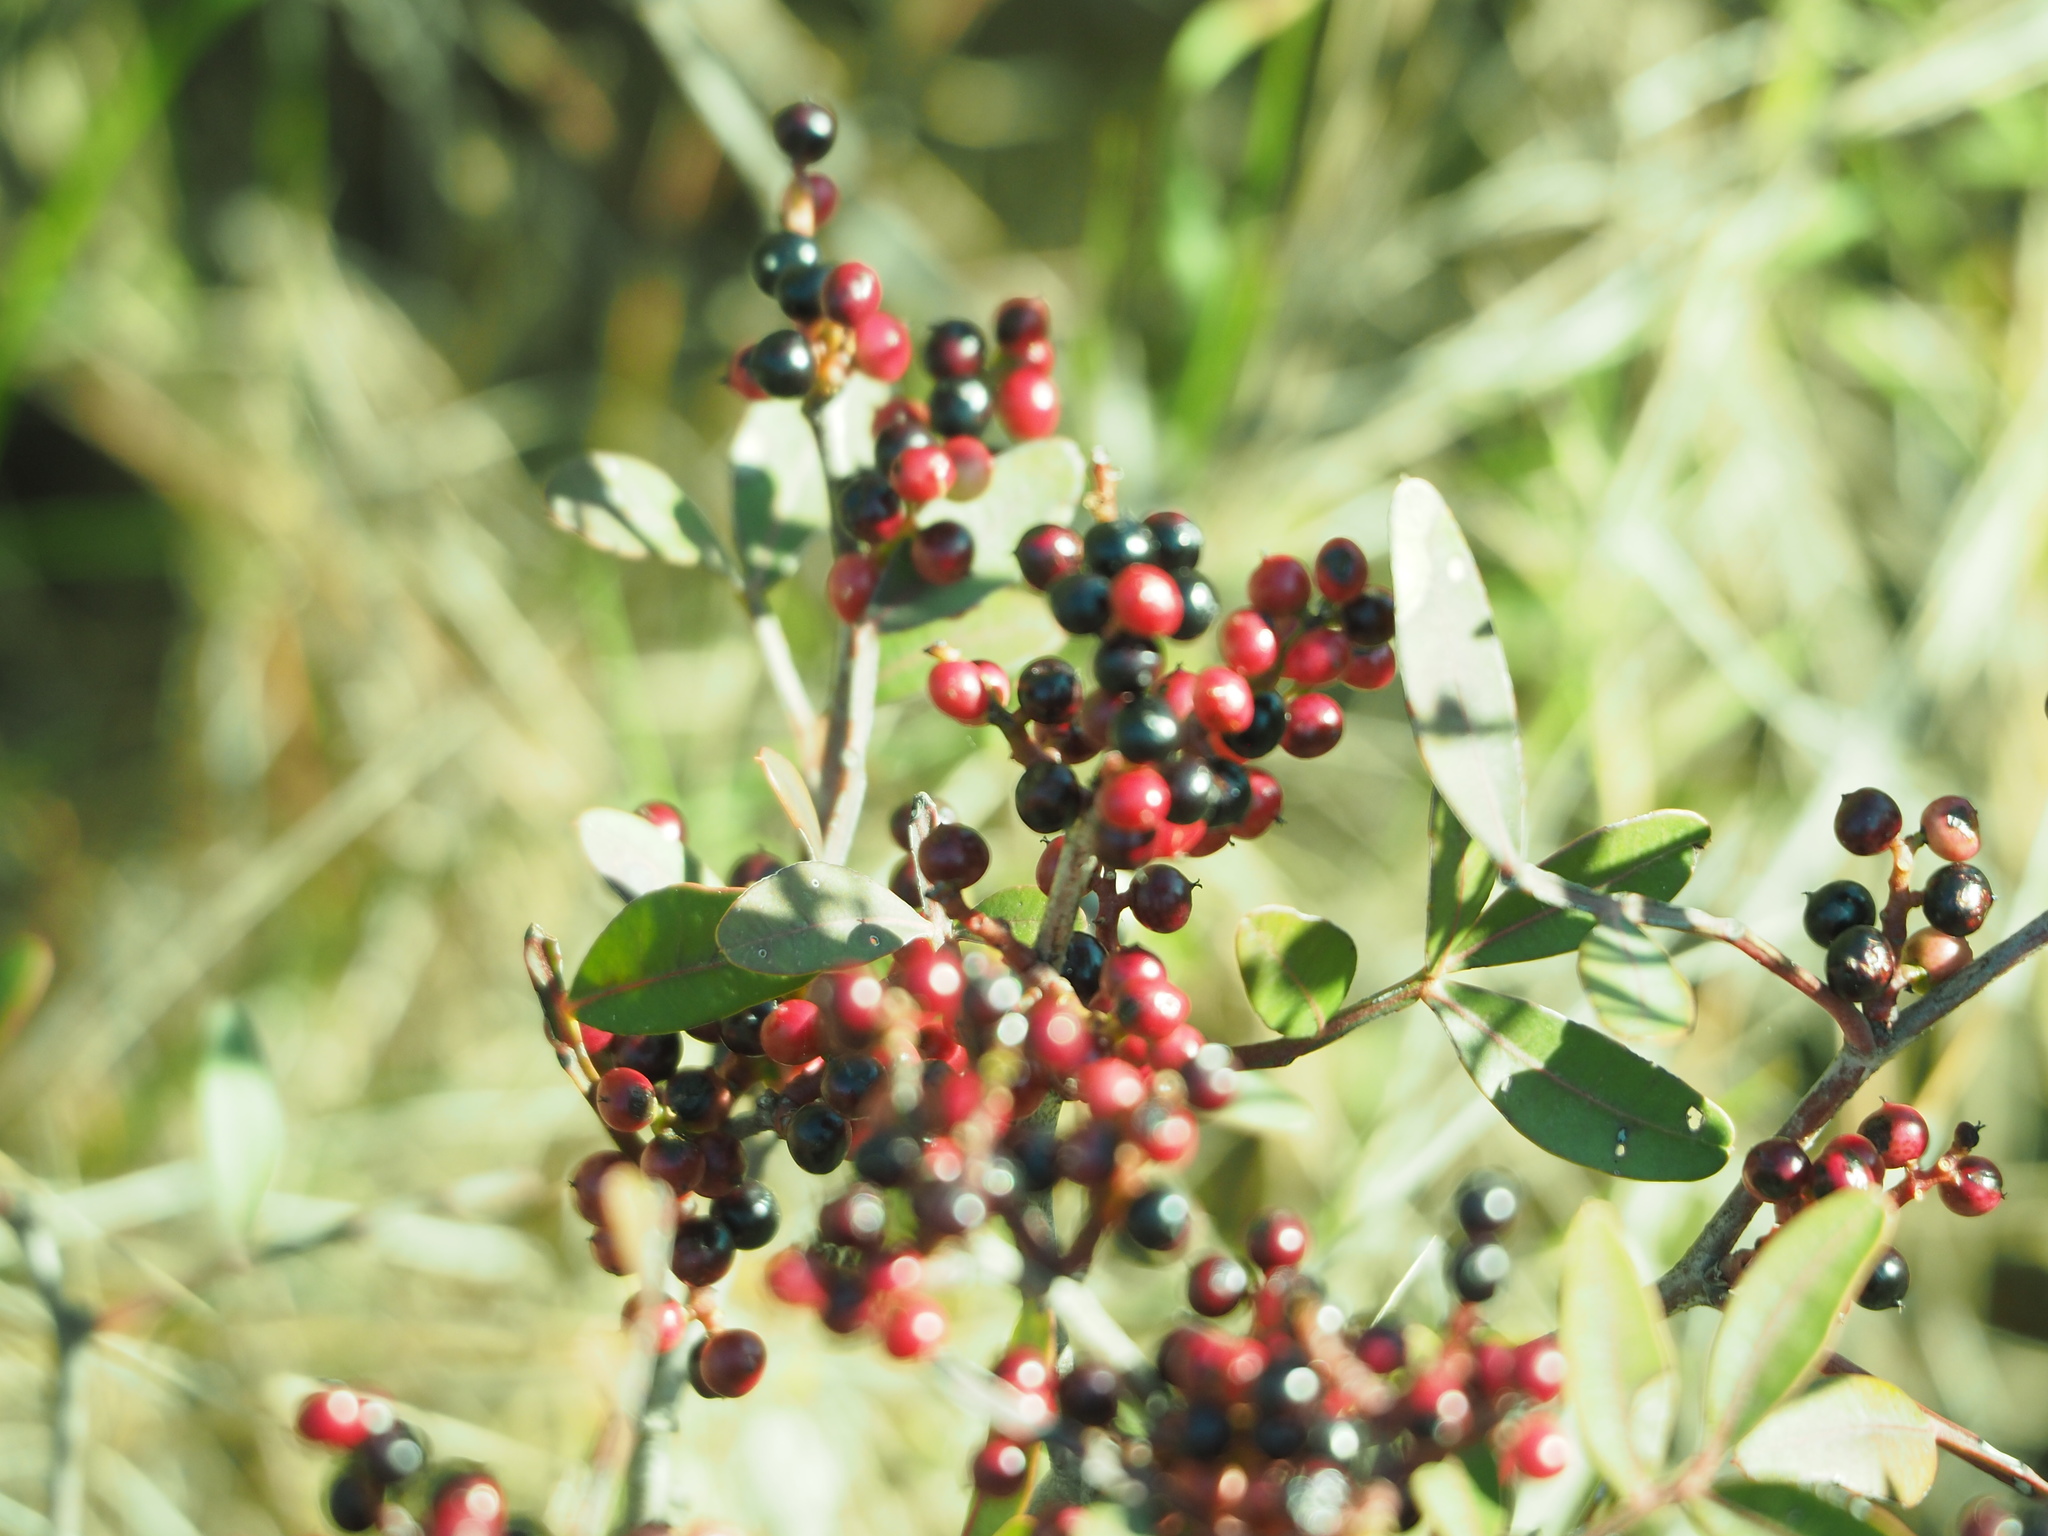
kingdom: Plantae
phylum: Tracheophyta
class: Magnoliopsida
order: Sapindales
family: Anacardiaceae
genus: Pistacia
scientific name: Pistacia lentiscus
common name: Lentisk
